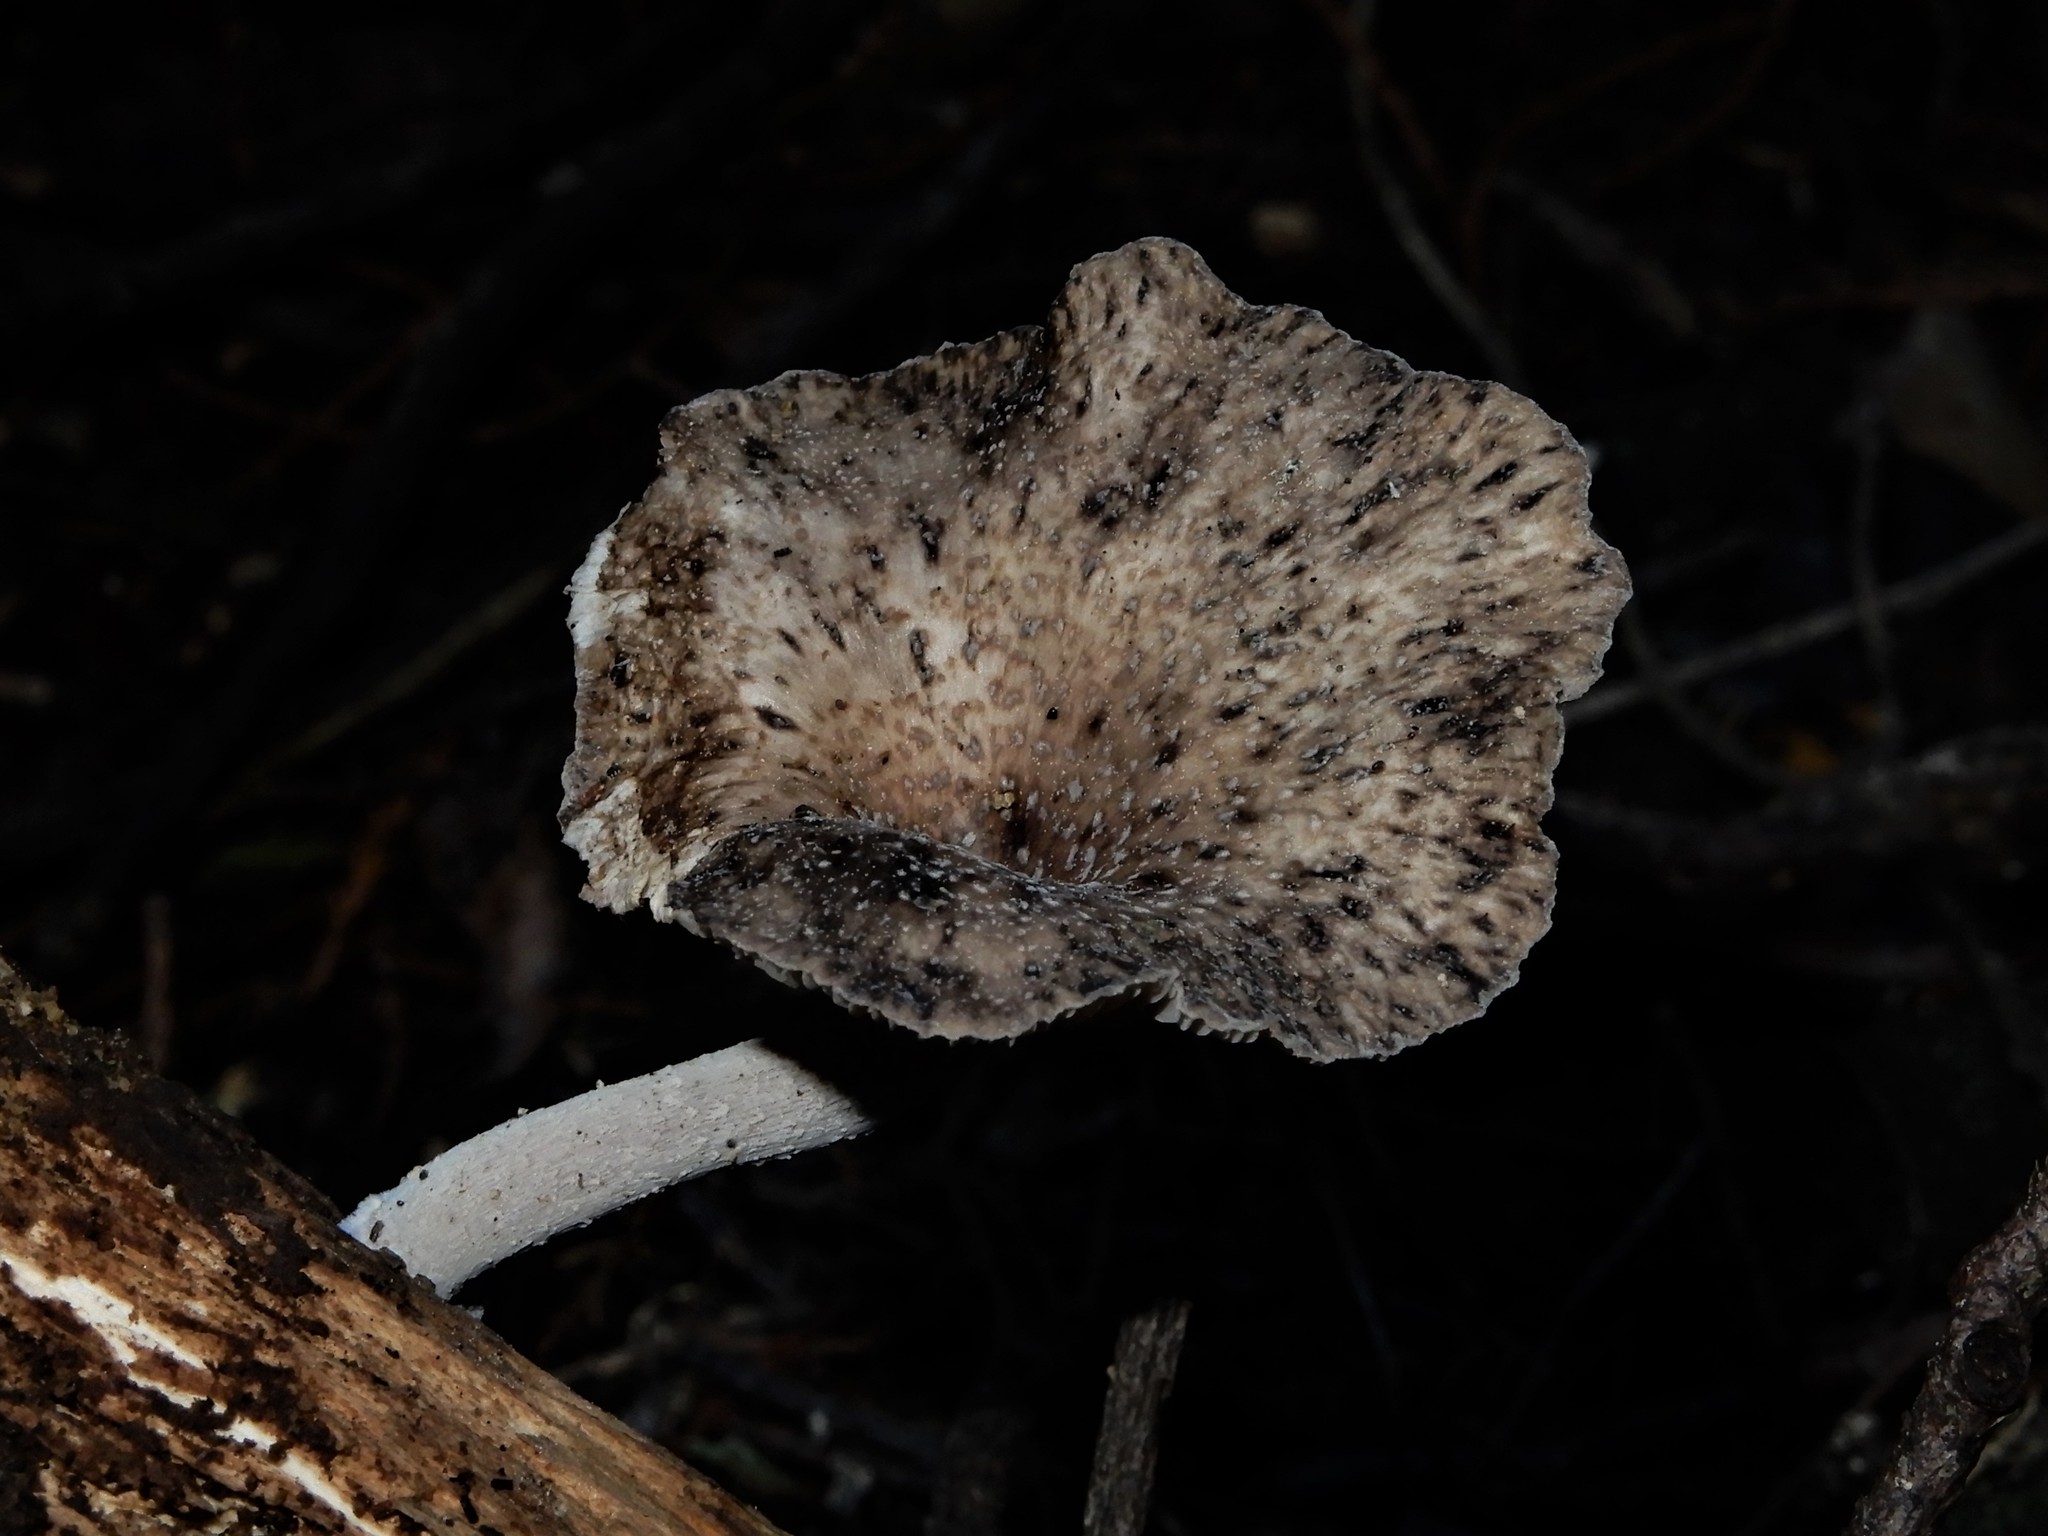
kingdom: Fungi
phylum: Basidiomycota
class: Agaricomycetes
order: Agaricales
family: Pleurotaceae
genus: Hohenbuehelia
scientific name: Hohenbuehelia
